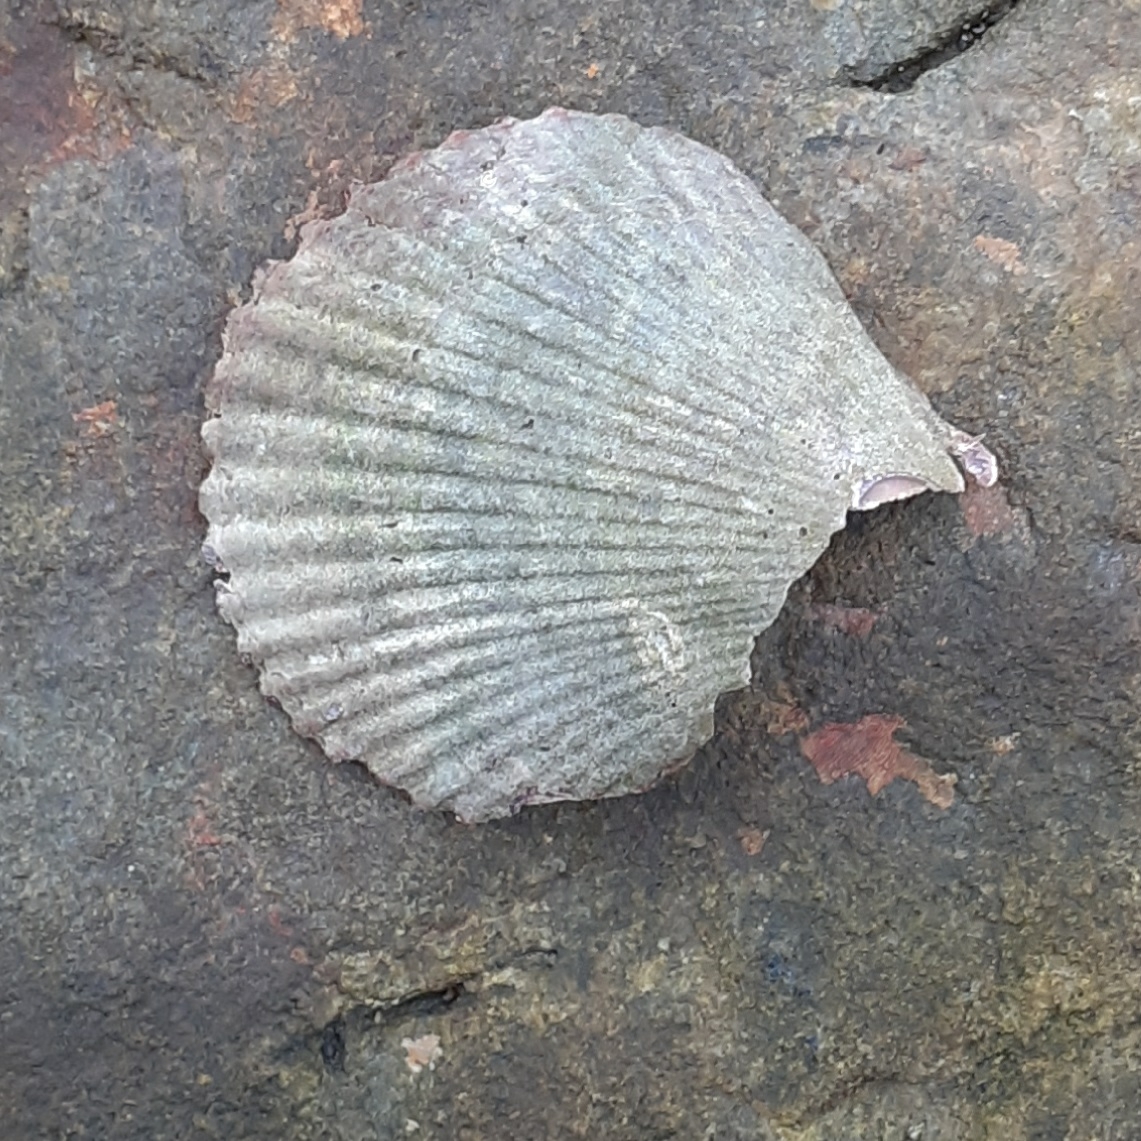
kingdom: Animalia
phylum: Mollusca
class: Bivalvia
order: Pectinida
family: Pectinidae
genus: Mimachlamys
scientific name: Mimachlamys varia
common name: Variegated scallop
